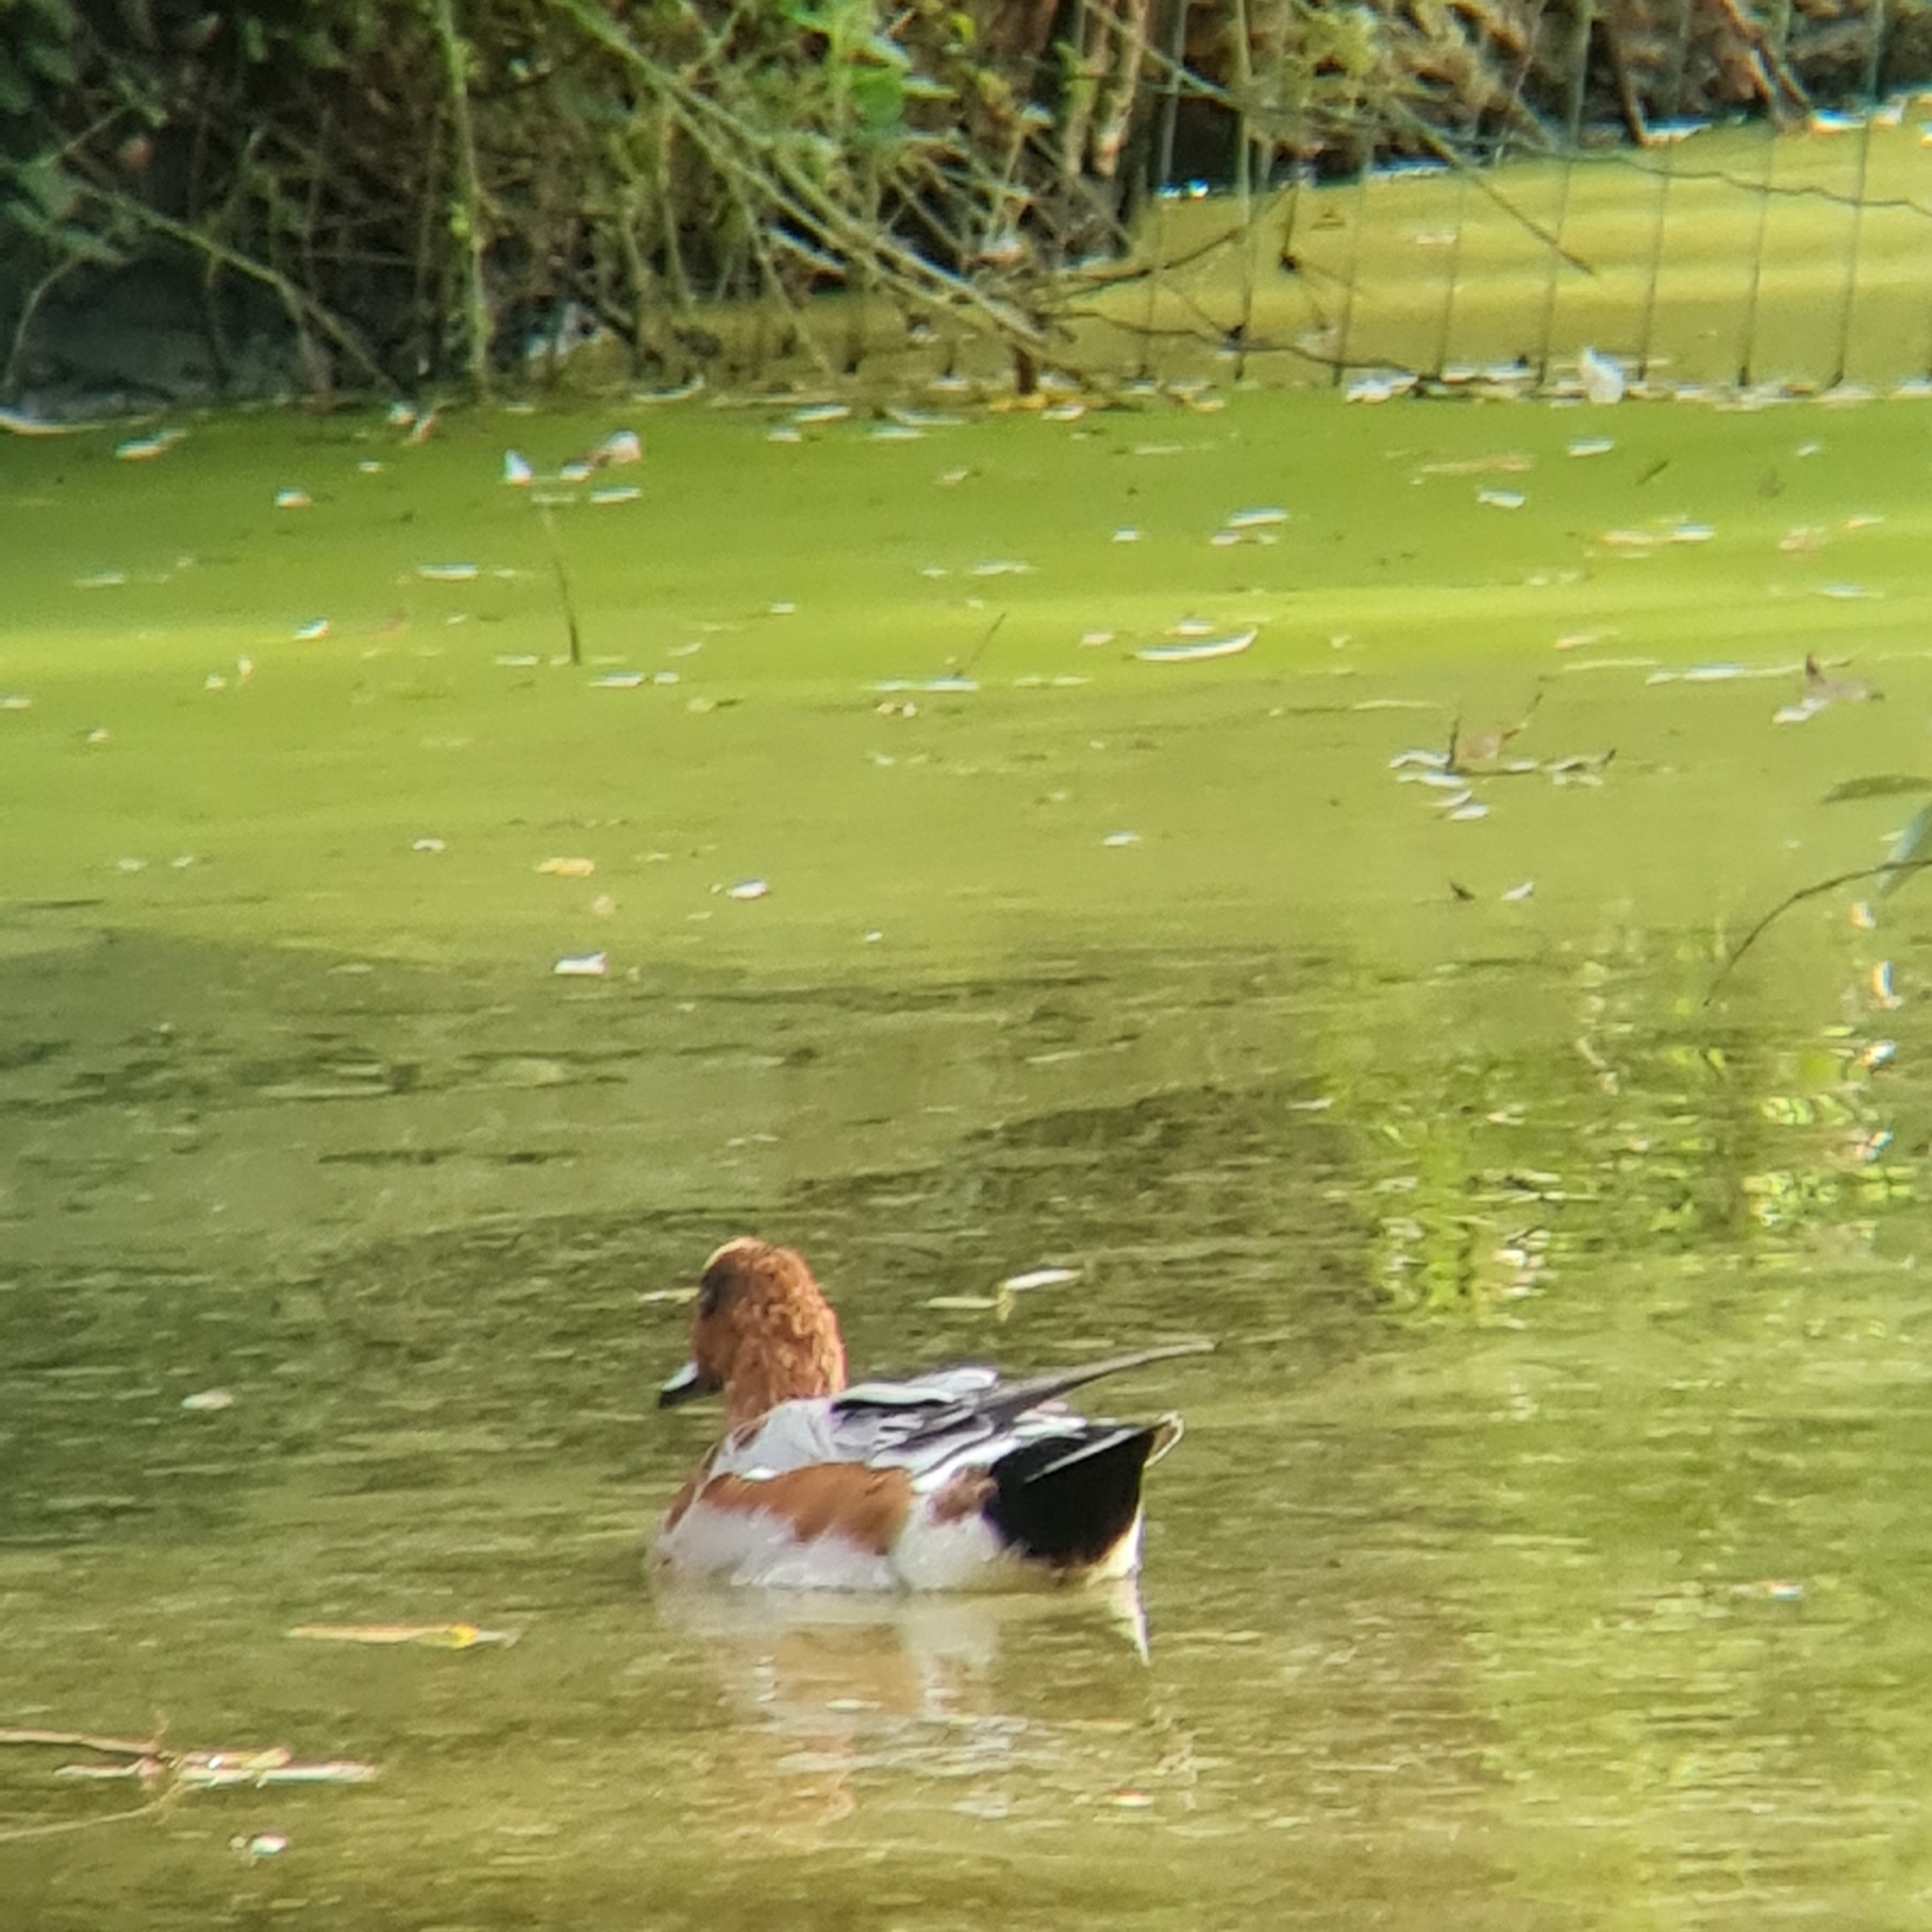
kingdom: Animalia
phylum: Chordata
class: Aves
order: Anseriformes
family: Anatidae
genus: Mareca
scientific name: Mareca penelope
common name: Eurasian wigeon
